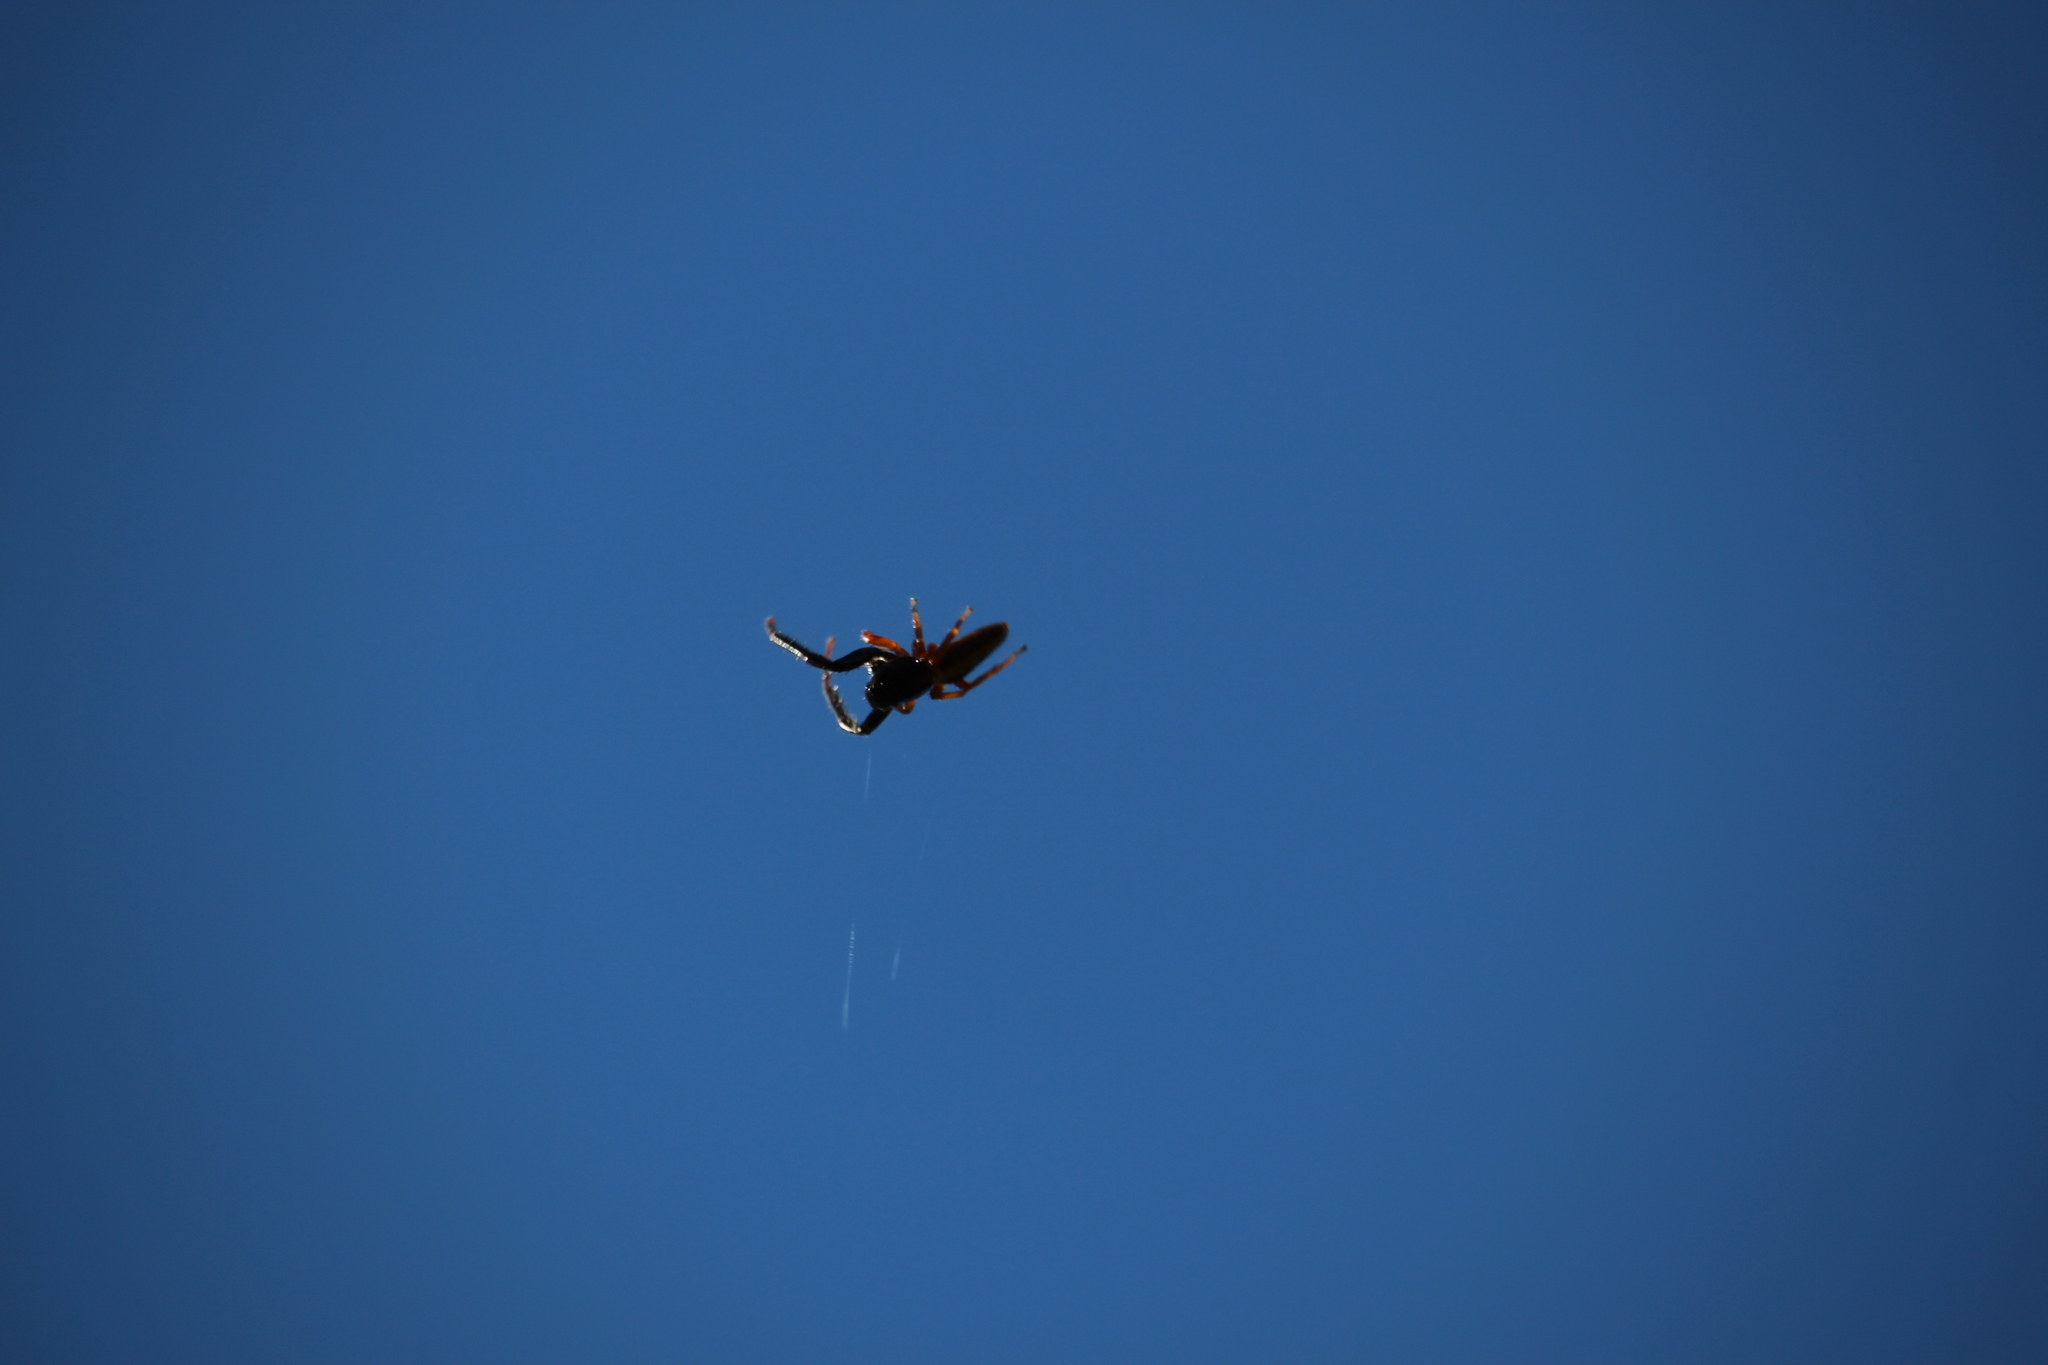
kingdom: Animalia
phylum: Arthropoda
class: Arachnida
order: Araneae
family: Salticidae
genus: Trite
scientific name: Trite planiceps
